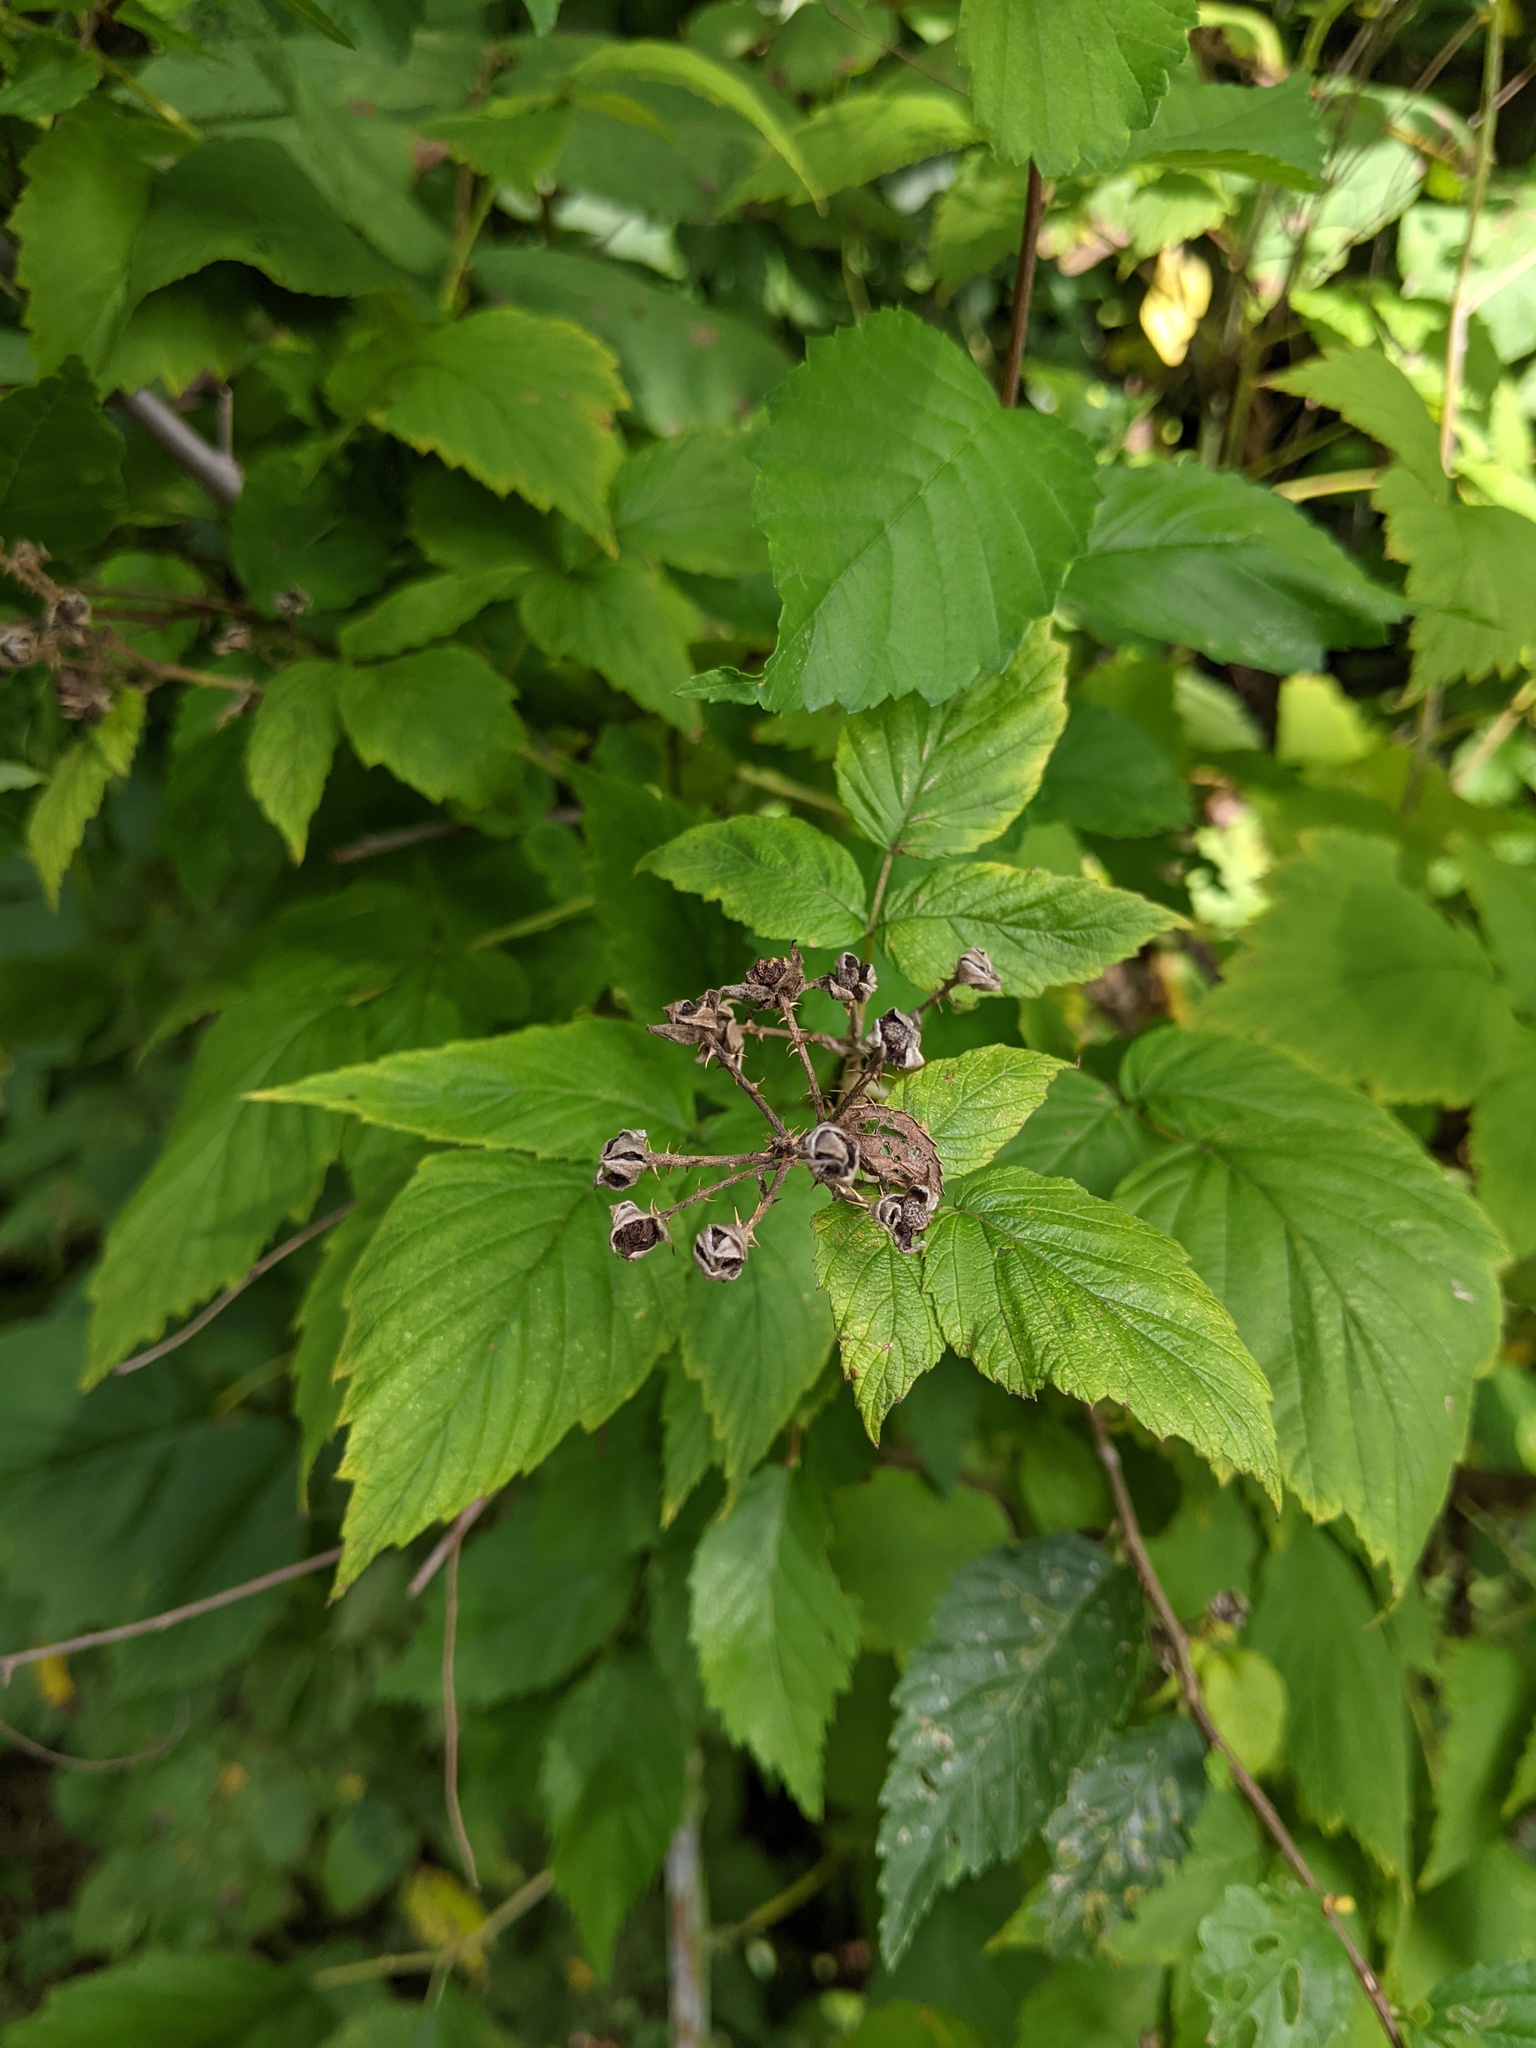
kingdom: Plantae
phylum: Tracheophyta
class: Magnoliopsida
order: Rosales
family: Rosaceae
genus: Rubus
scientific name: Rubus occidentalis
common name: Black raspberry
